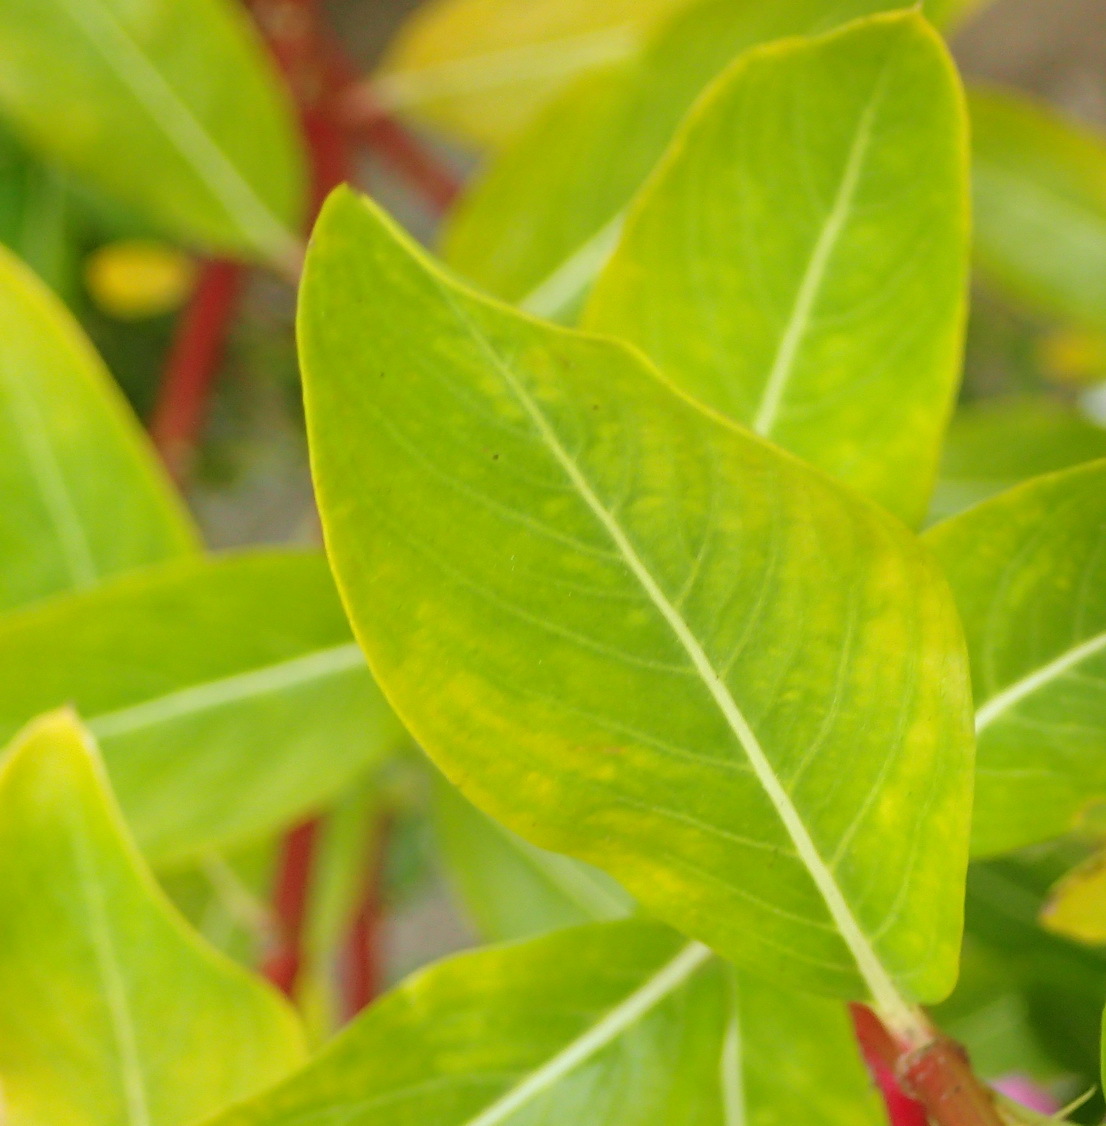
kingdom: Plantae
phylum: Tracheophyta
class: Magnoliopsida
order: Gentianales
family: Apocynaceae
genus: Catharanthus
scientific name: Catharanthus roseus
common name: Madagascar periwinkle
